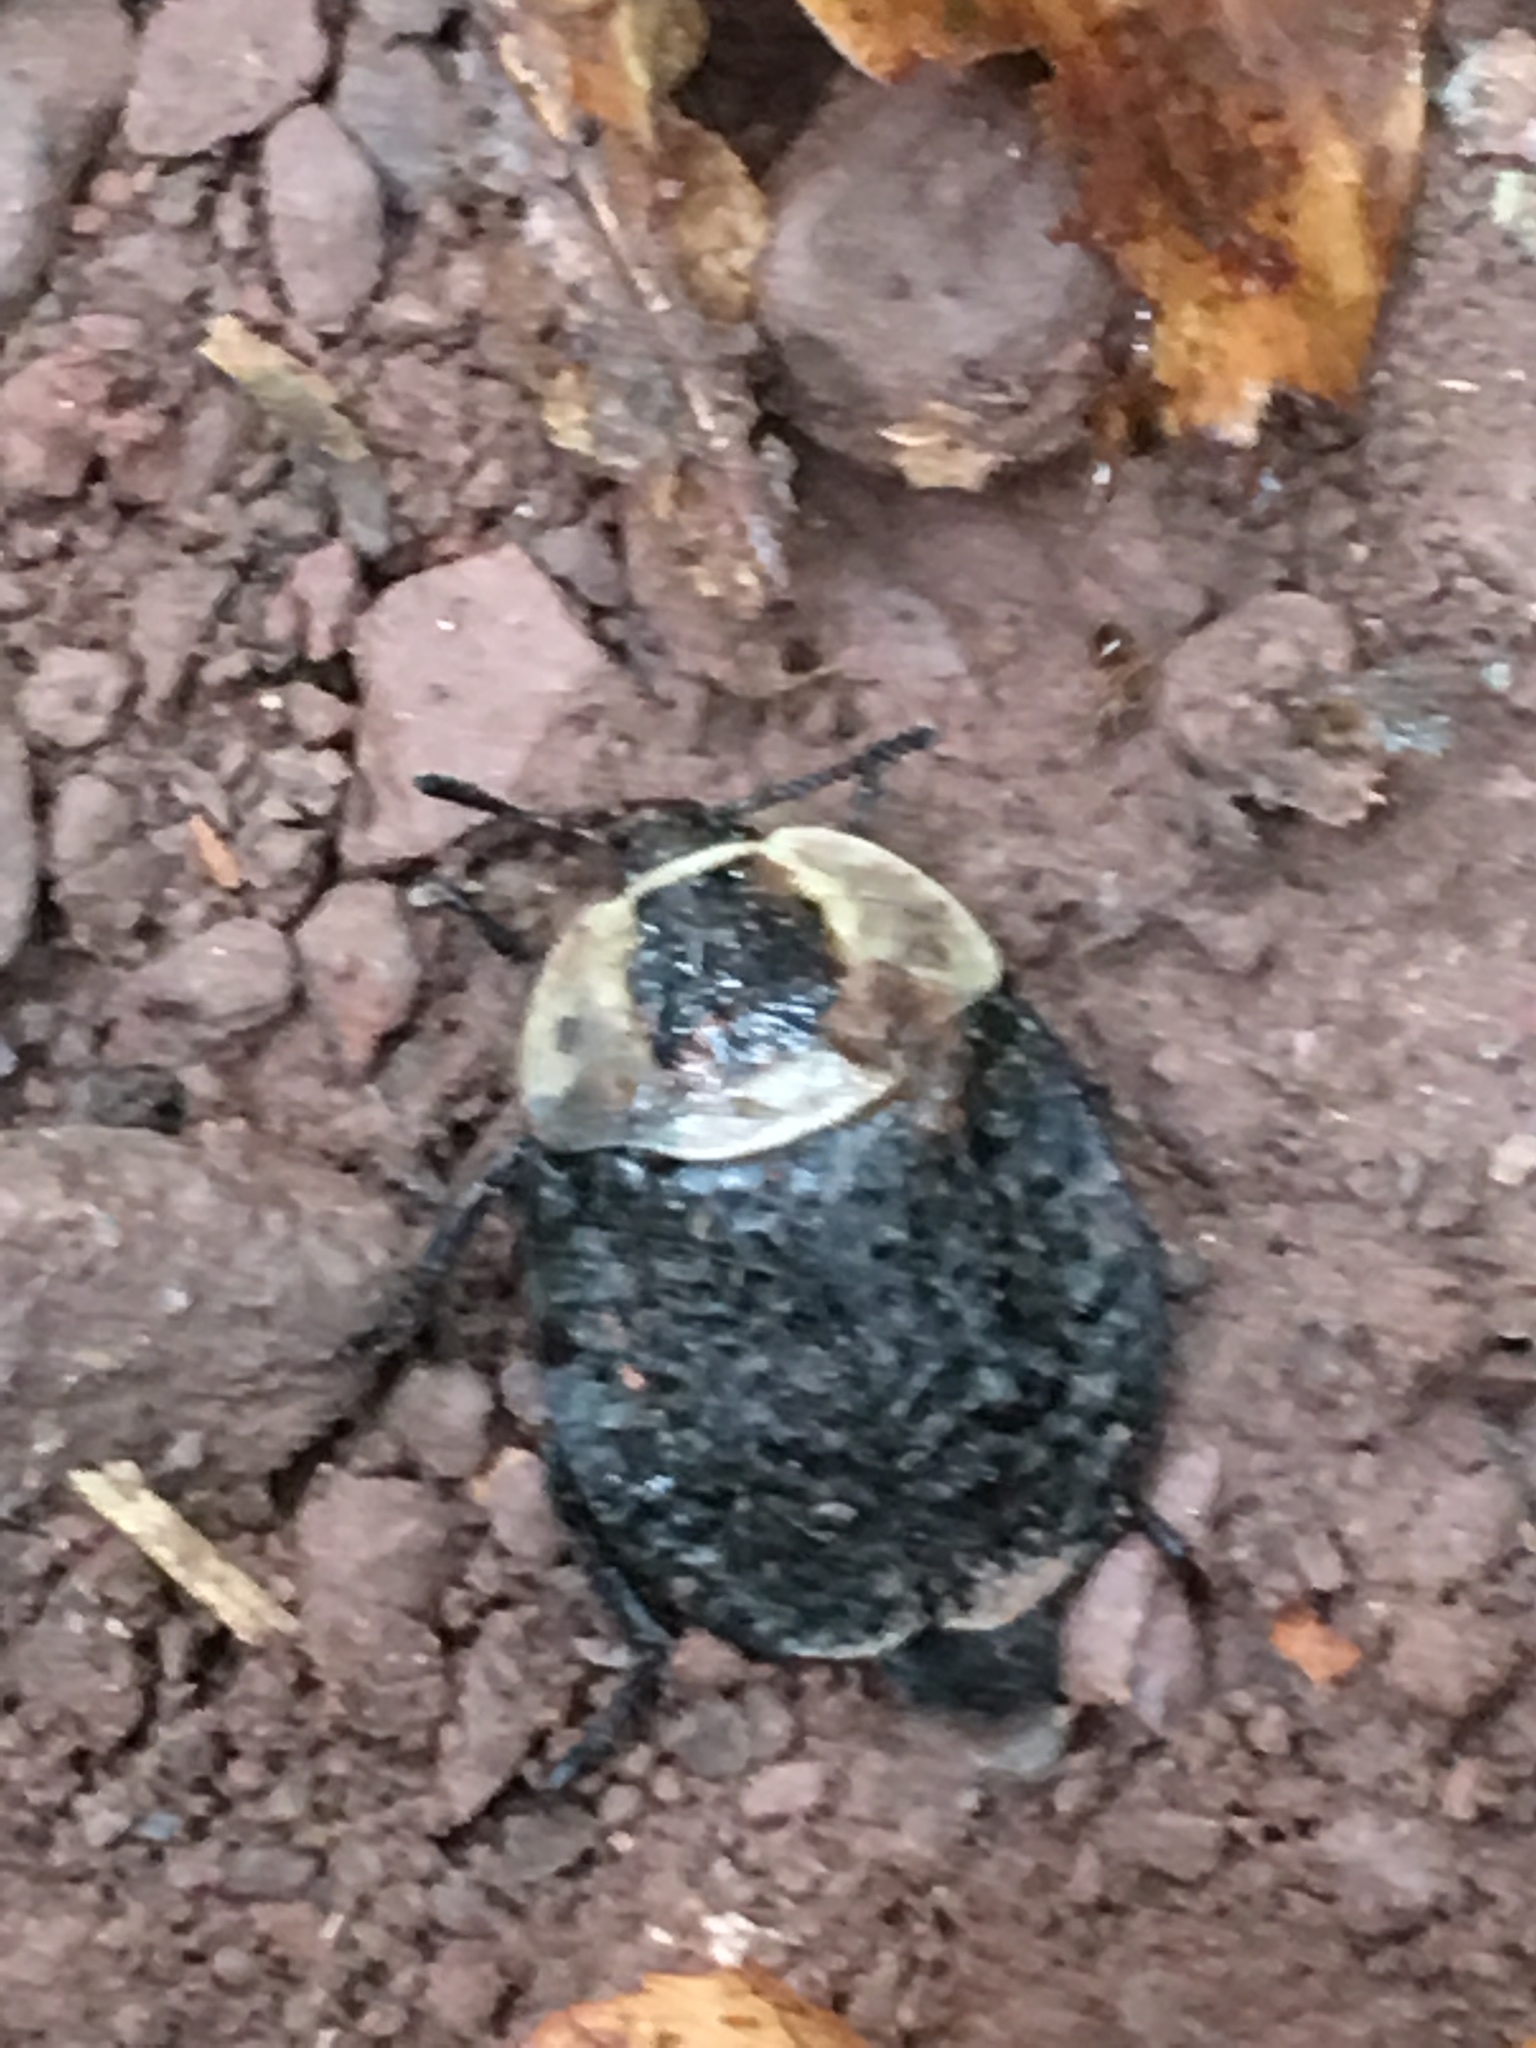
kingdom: Animalia
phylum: Arthropoda
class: Insecta
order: Coleoptera
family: Staphylinidae
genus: Necrophila
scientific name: Necrophila americana
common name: American carrion beetle
